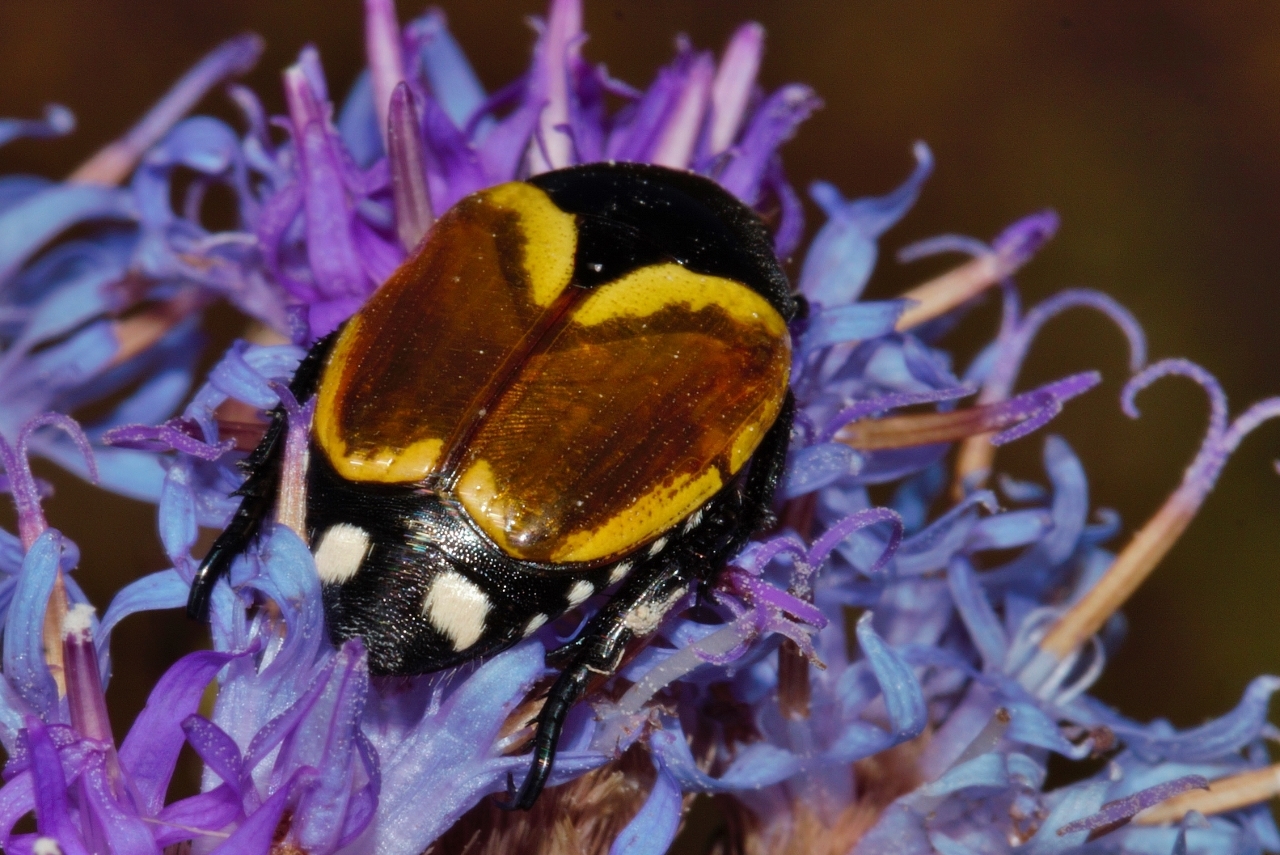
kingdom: Animalia
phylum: Arthropoda
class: Insecta
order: Coleoptera
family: Scarabaeidae
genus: Popillia
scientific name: Popillia bipunctata
